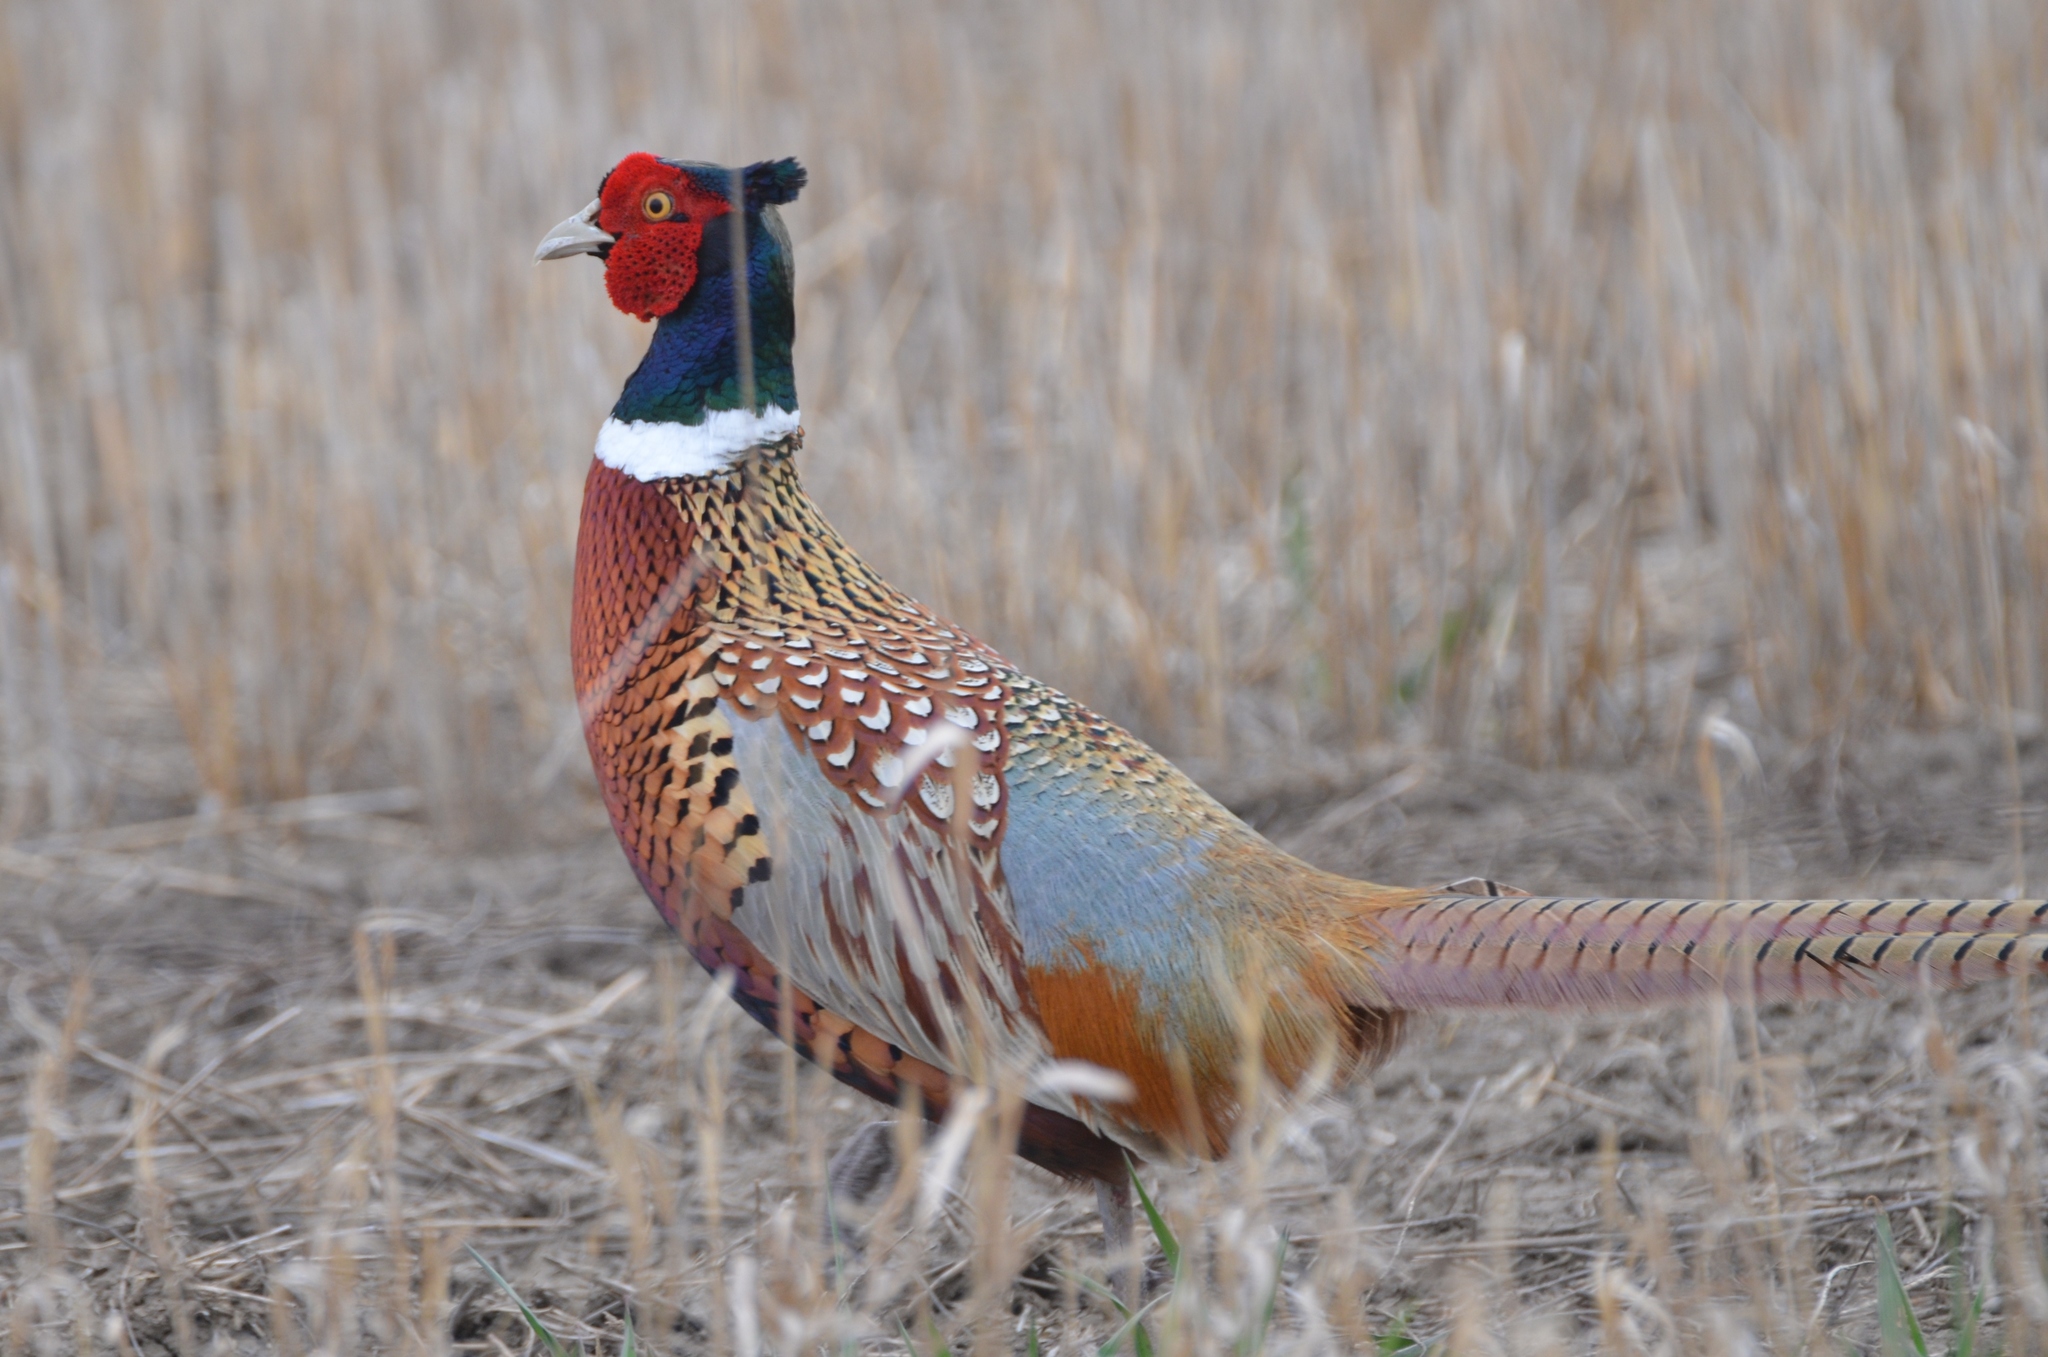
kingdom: Animalia
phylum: Chordata
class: Aves
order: Galliformes
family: Phasianidae
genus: Phasianus
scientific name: Phasianus colchicus
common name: Common pheasant
